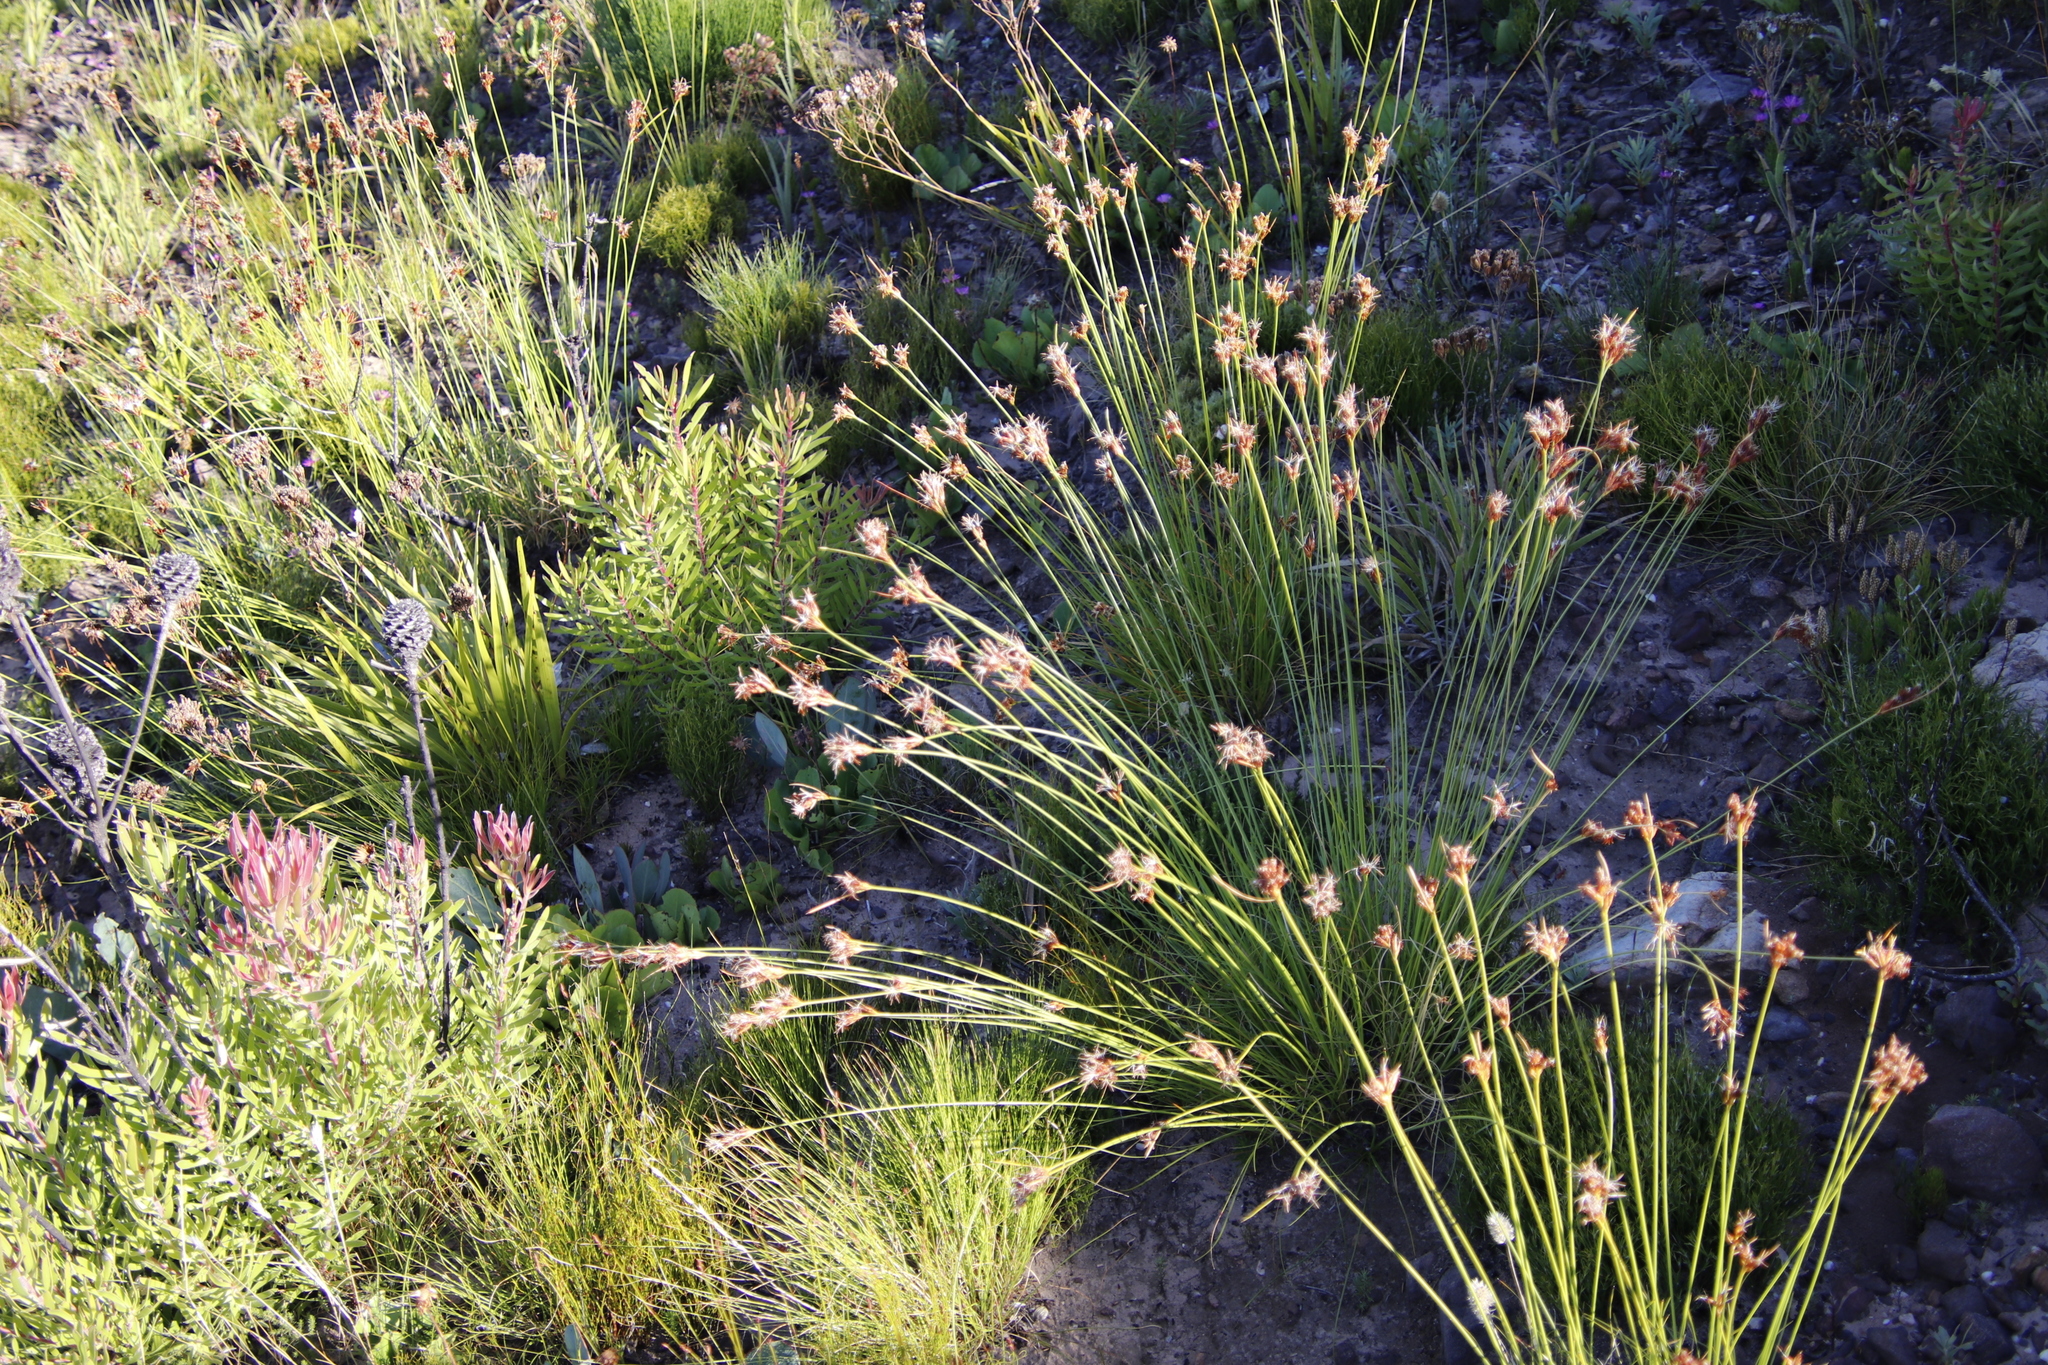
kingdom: Plantae
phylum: Tracheophyta
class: Liliopsida
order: Poales
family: Cyperaceae
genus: Schoenus
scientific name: Schoenus compar
